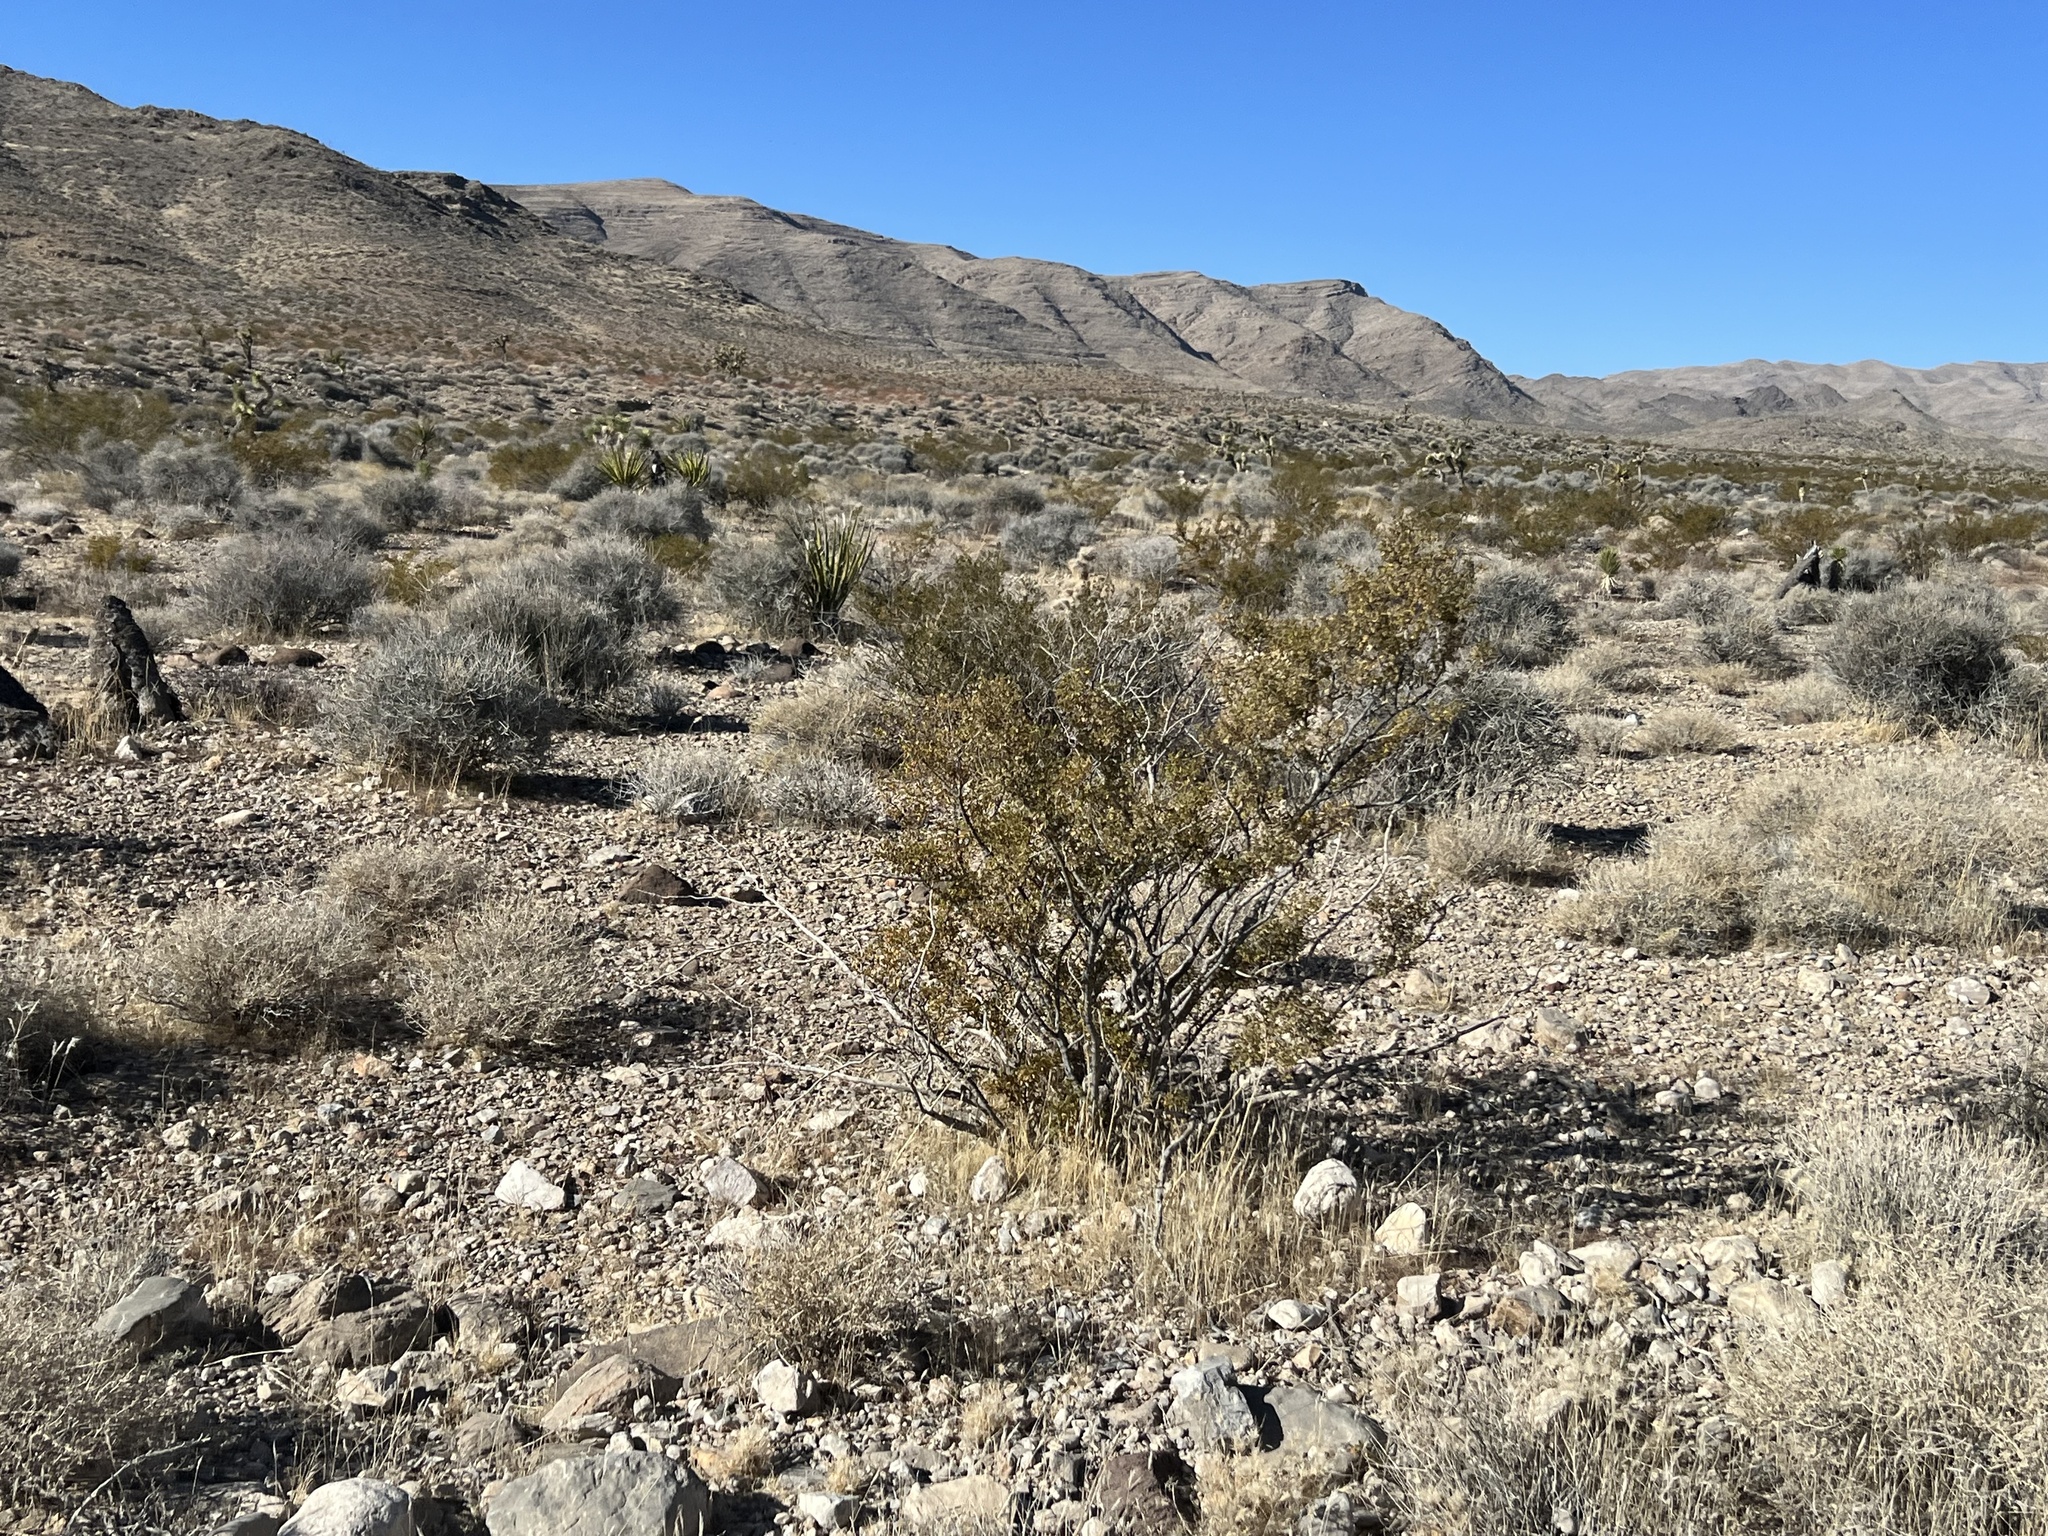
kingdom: Plantae
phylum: Tracheophyta
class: Magnoliopsida
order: Zygophyllales
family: Zygophyllaceae
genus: Larrea
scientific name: Larrea tridentata
